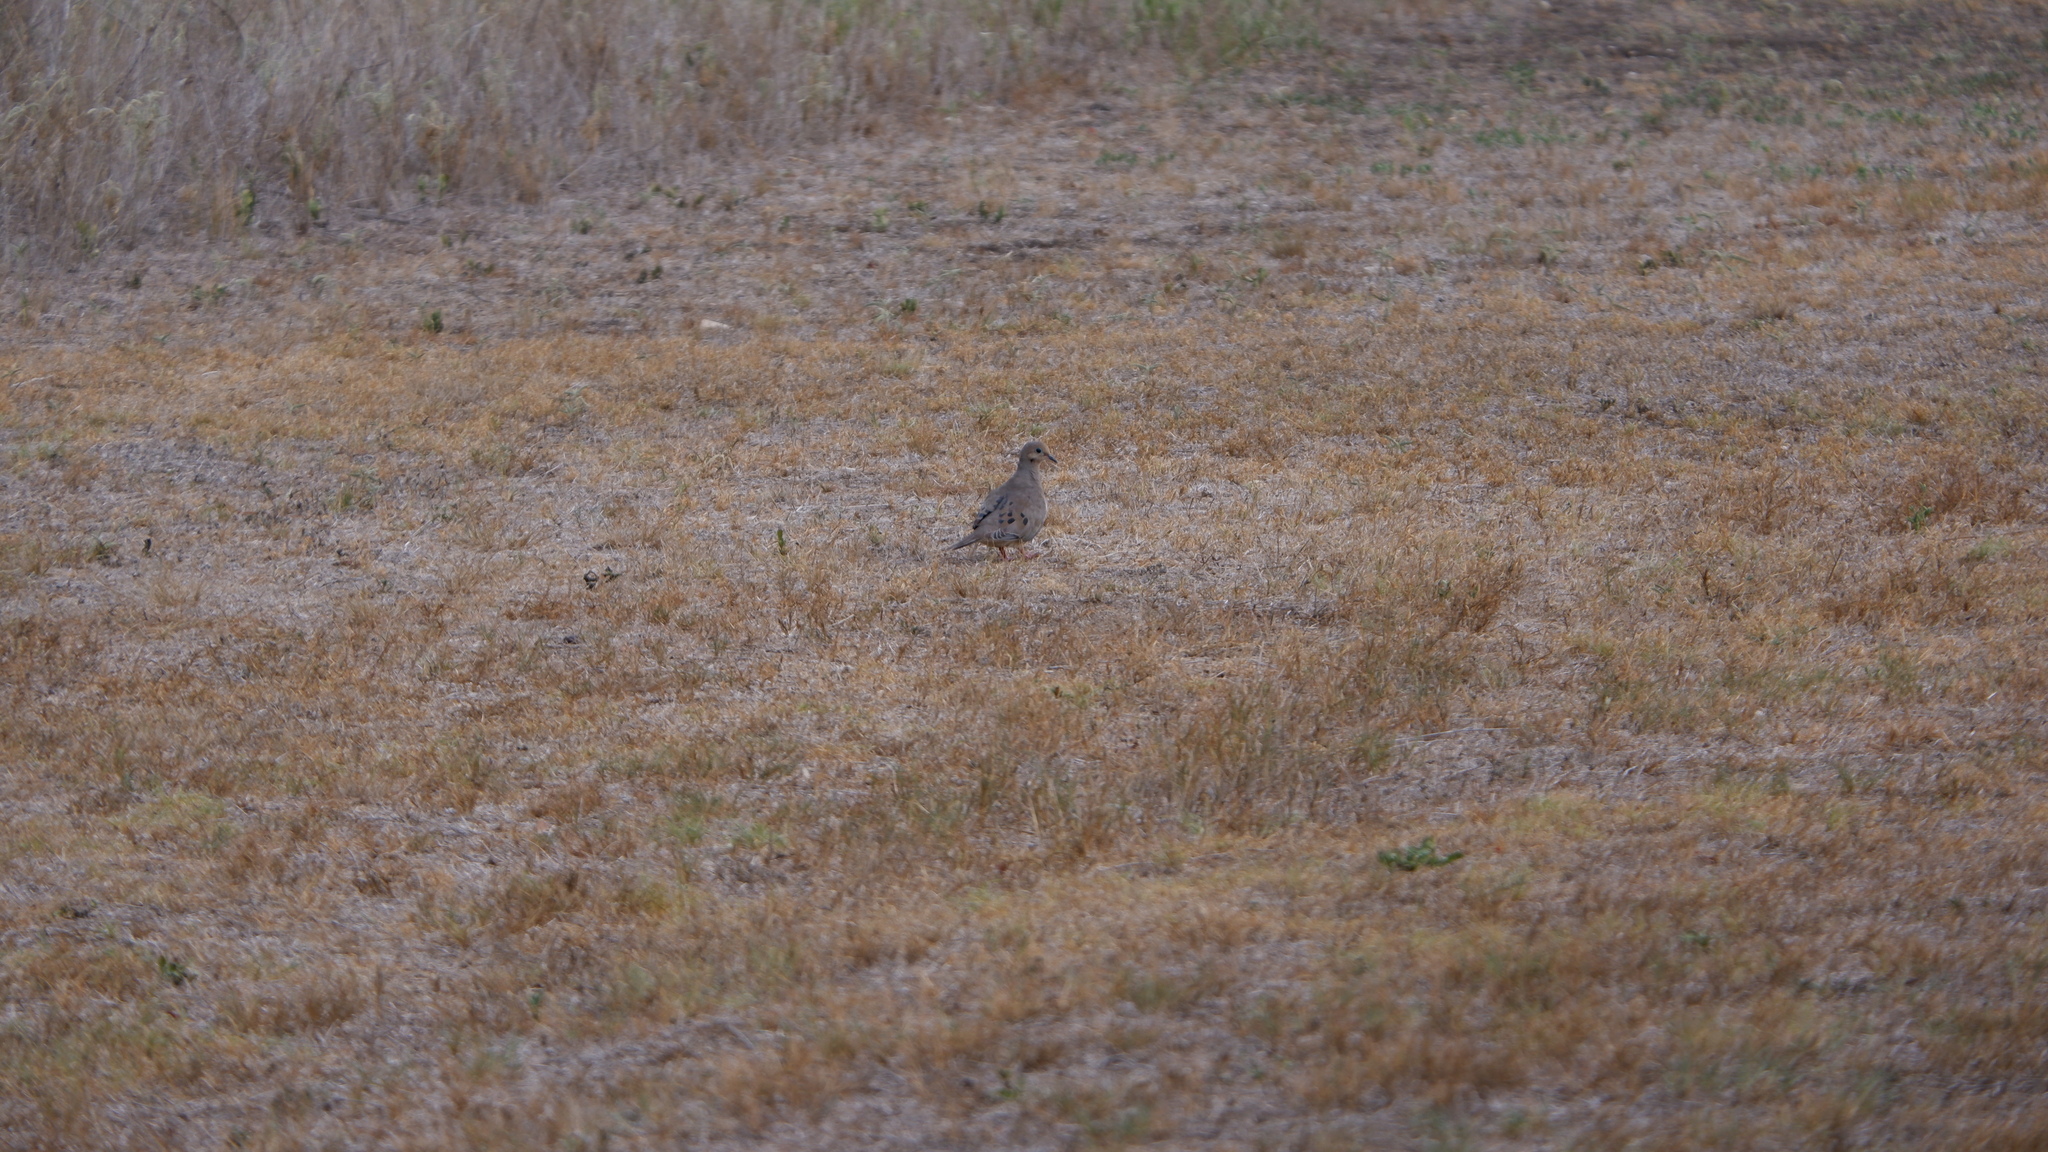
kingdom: Animalia
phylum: Chordata
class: Aves
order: Columbiformes
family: Columbidae
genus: Zenaida
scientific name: Zenaida macroura
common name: Mourning dove
